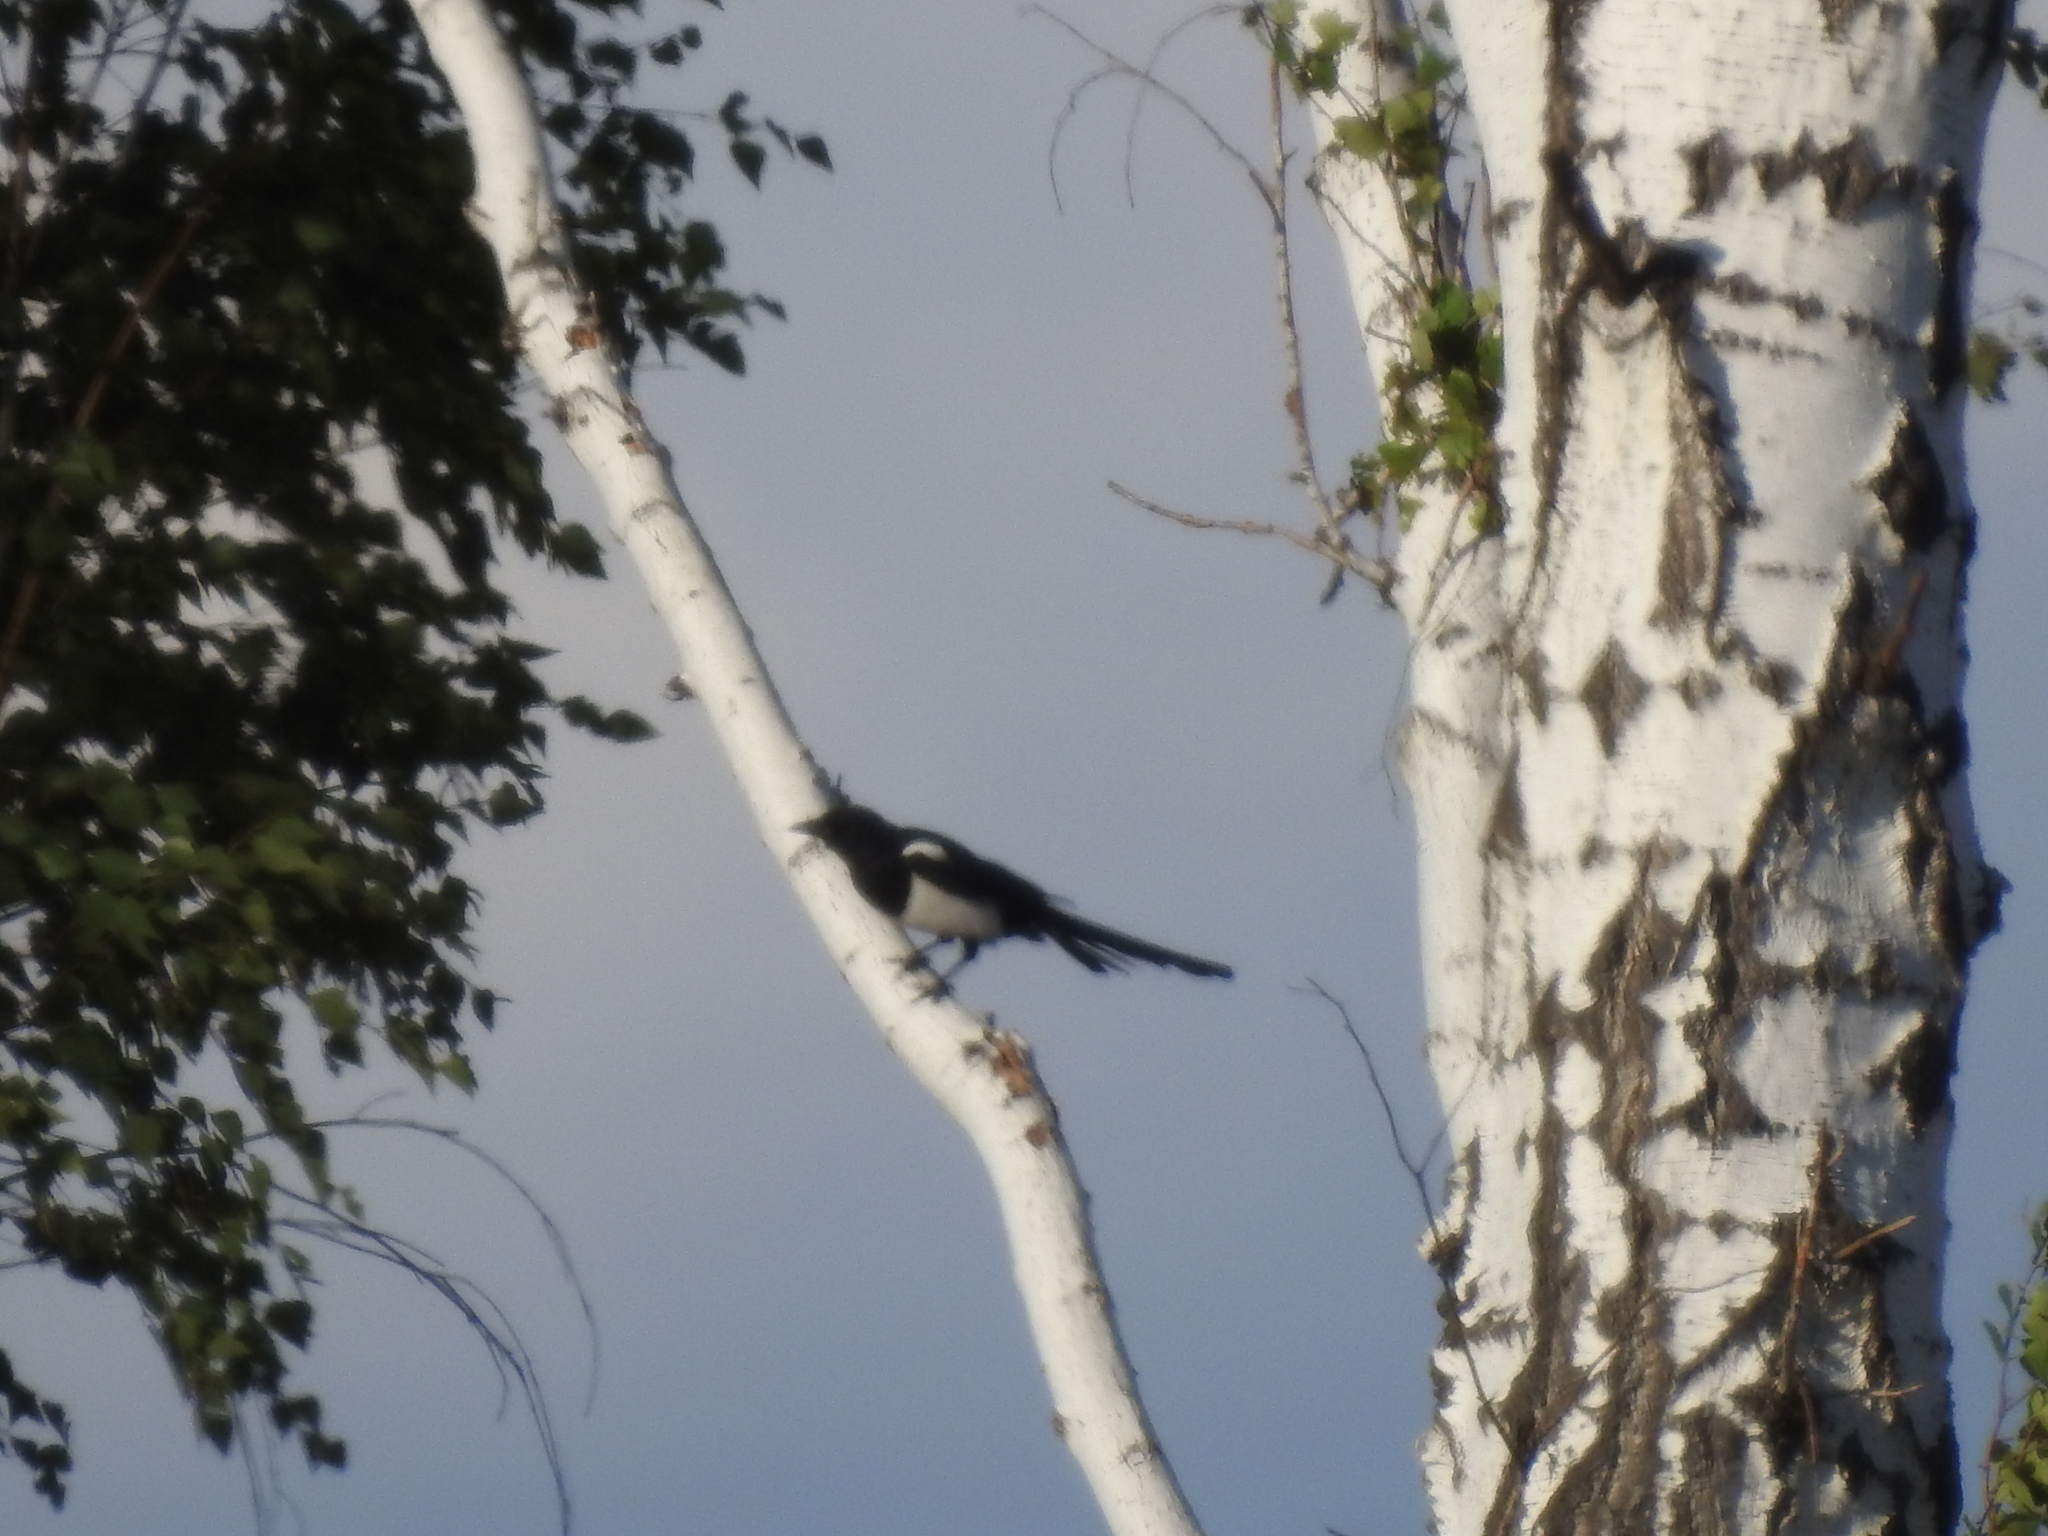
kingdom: Animalia
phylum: Chordata
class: Aves
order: Passeriformes
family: Corvidae
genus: Pica
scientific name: Pica pica
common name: Eurasian magpie
